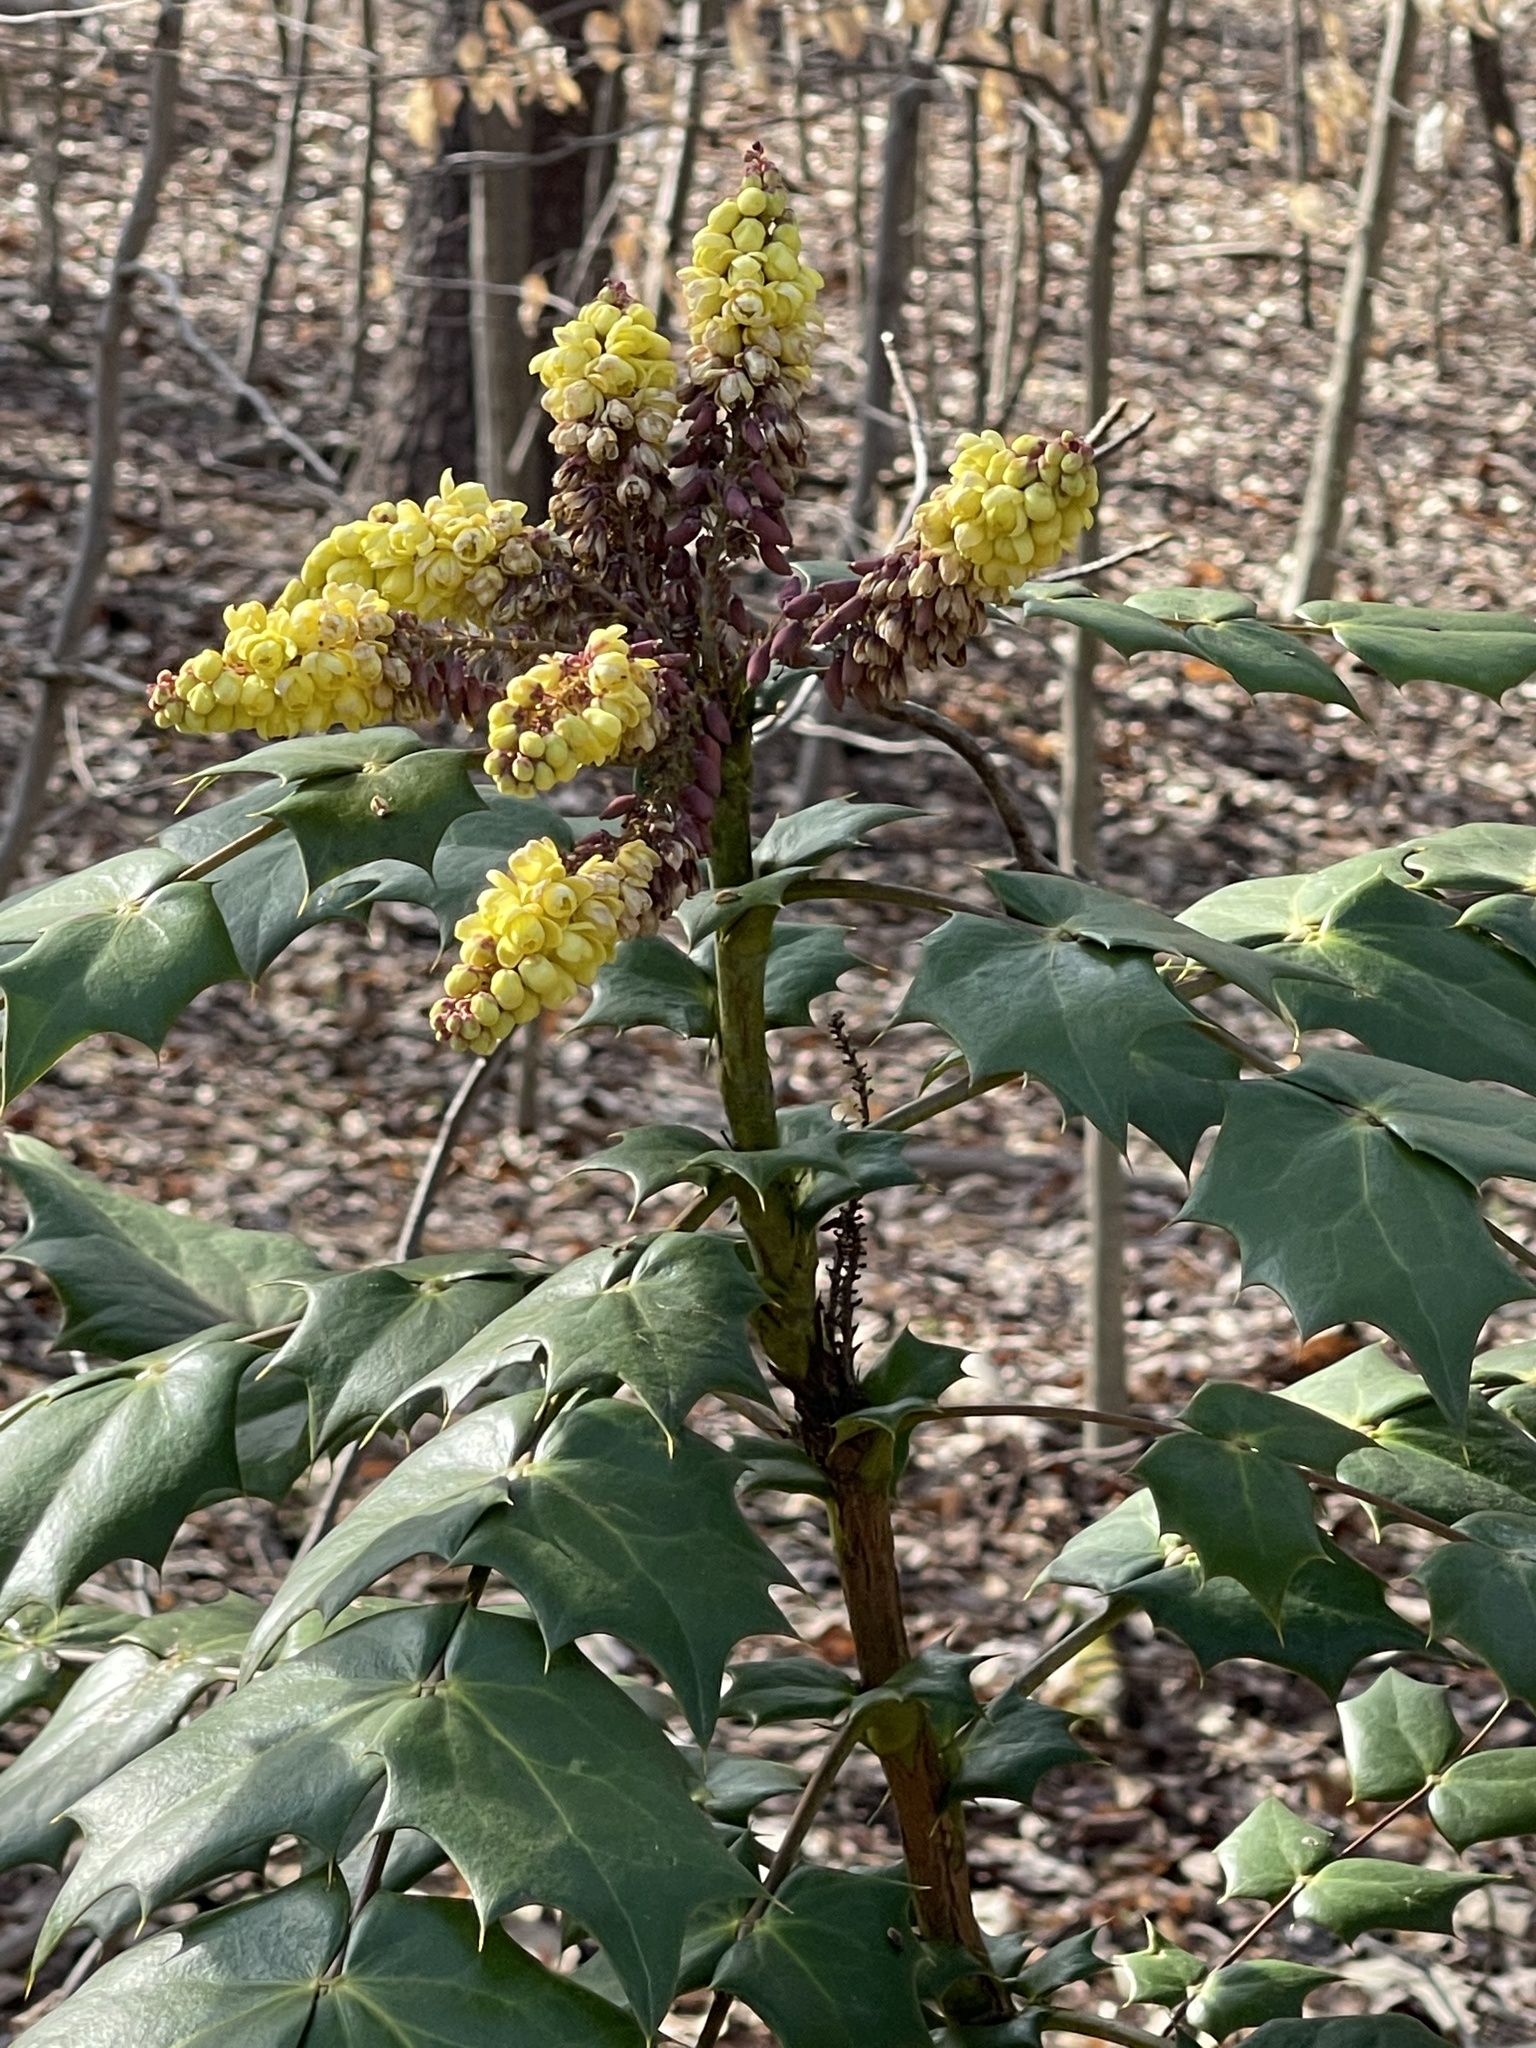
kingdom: Plantae
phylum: Tracheophyta
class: Magnoliopsida
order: Ranunculales
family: Berberidaceae
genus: Mahonia
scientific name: Mahonia bealei
